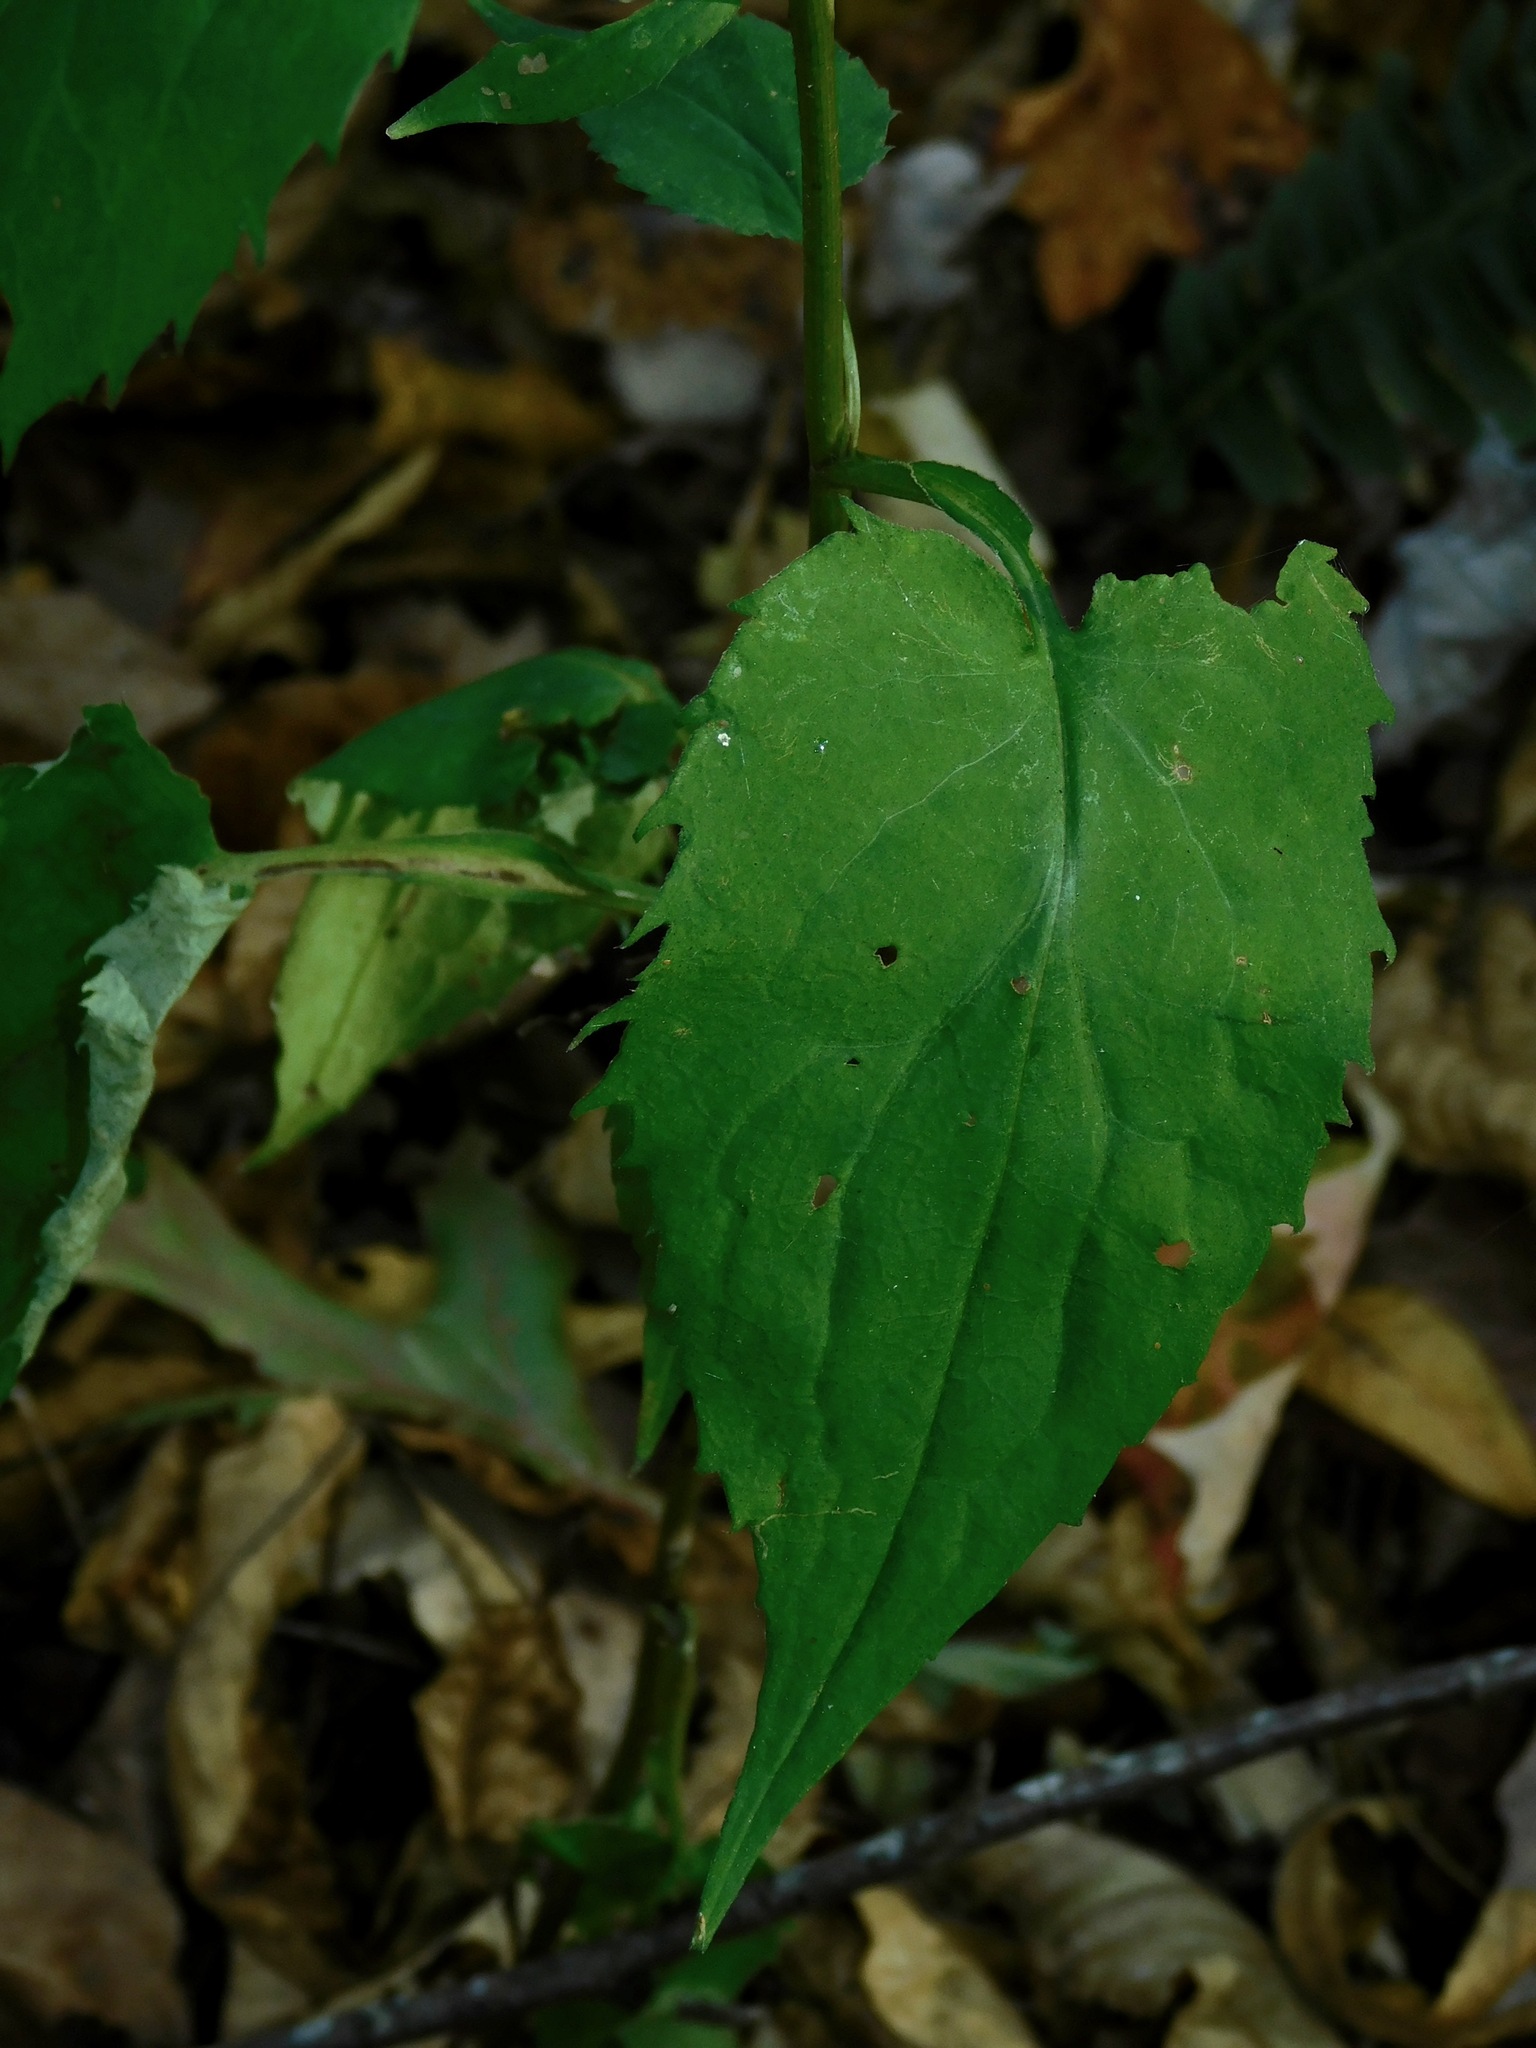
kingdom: Plantae
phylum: Tracheophyta
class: Magnoliopsida
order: Asterales
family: Asteraceae
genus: Symphyotrichum
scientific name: Symphyotrichum cordifolium
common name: Beeweed
